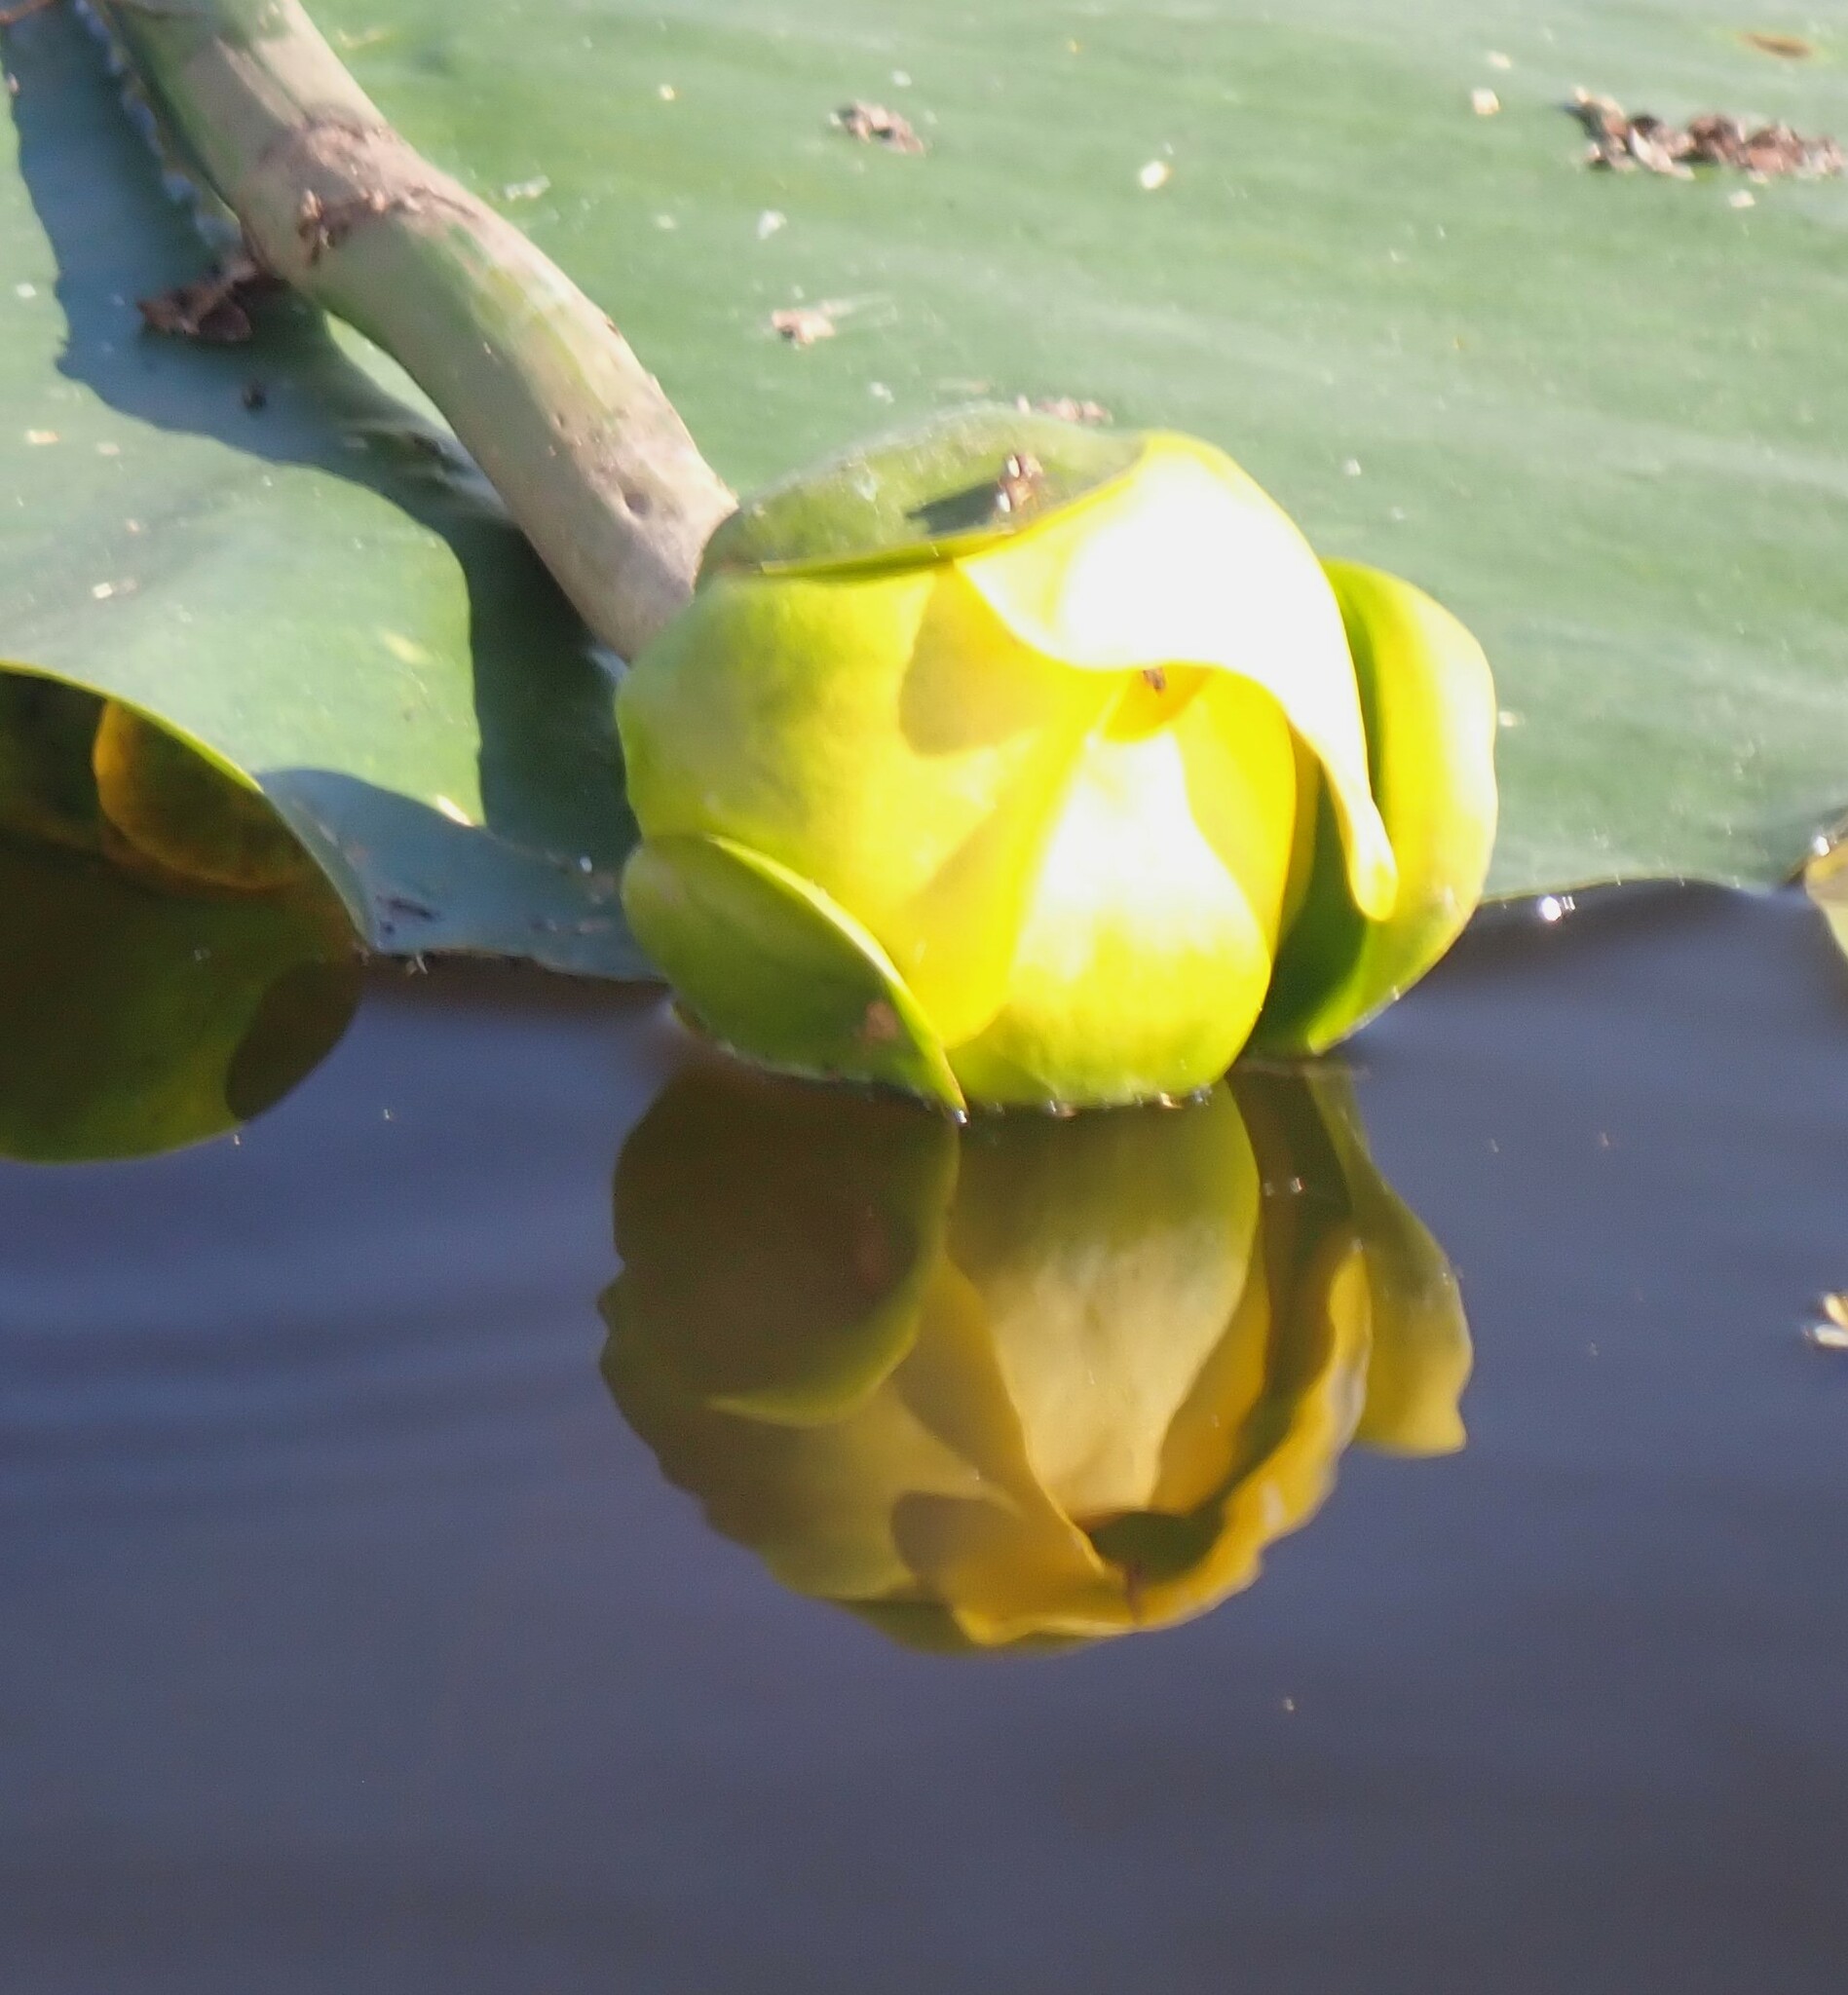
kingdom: Plantae
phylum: Tracheophyta
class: Magnoliopsida
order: Nymphaeales
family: Nymphaeaceae
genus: Nuphar
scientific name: Nuphar advena
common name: Spatter-dock
